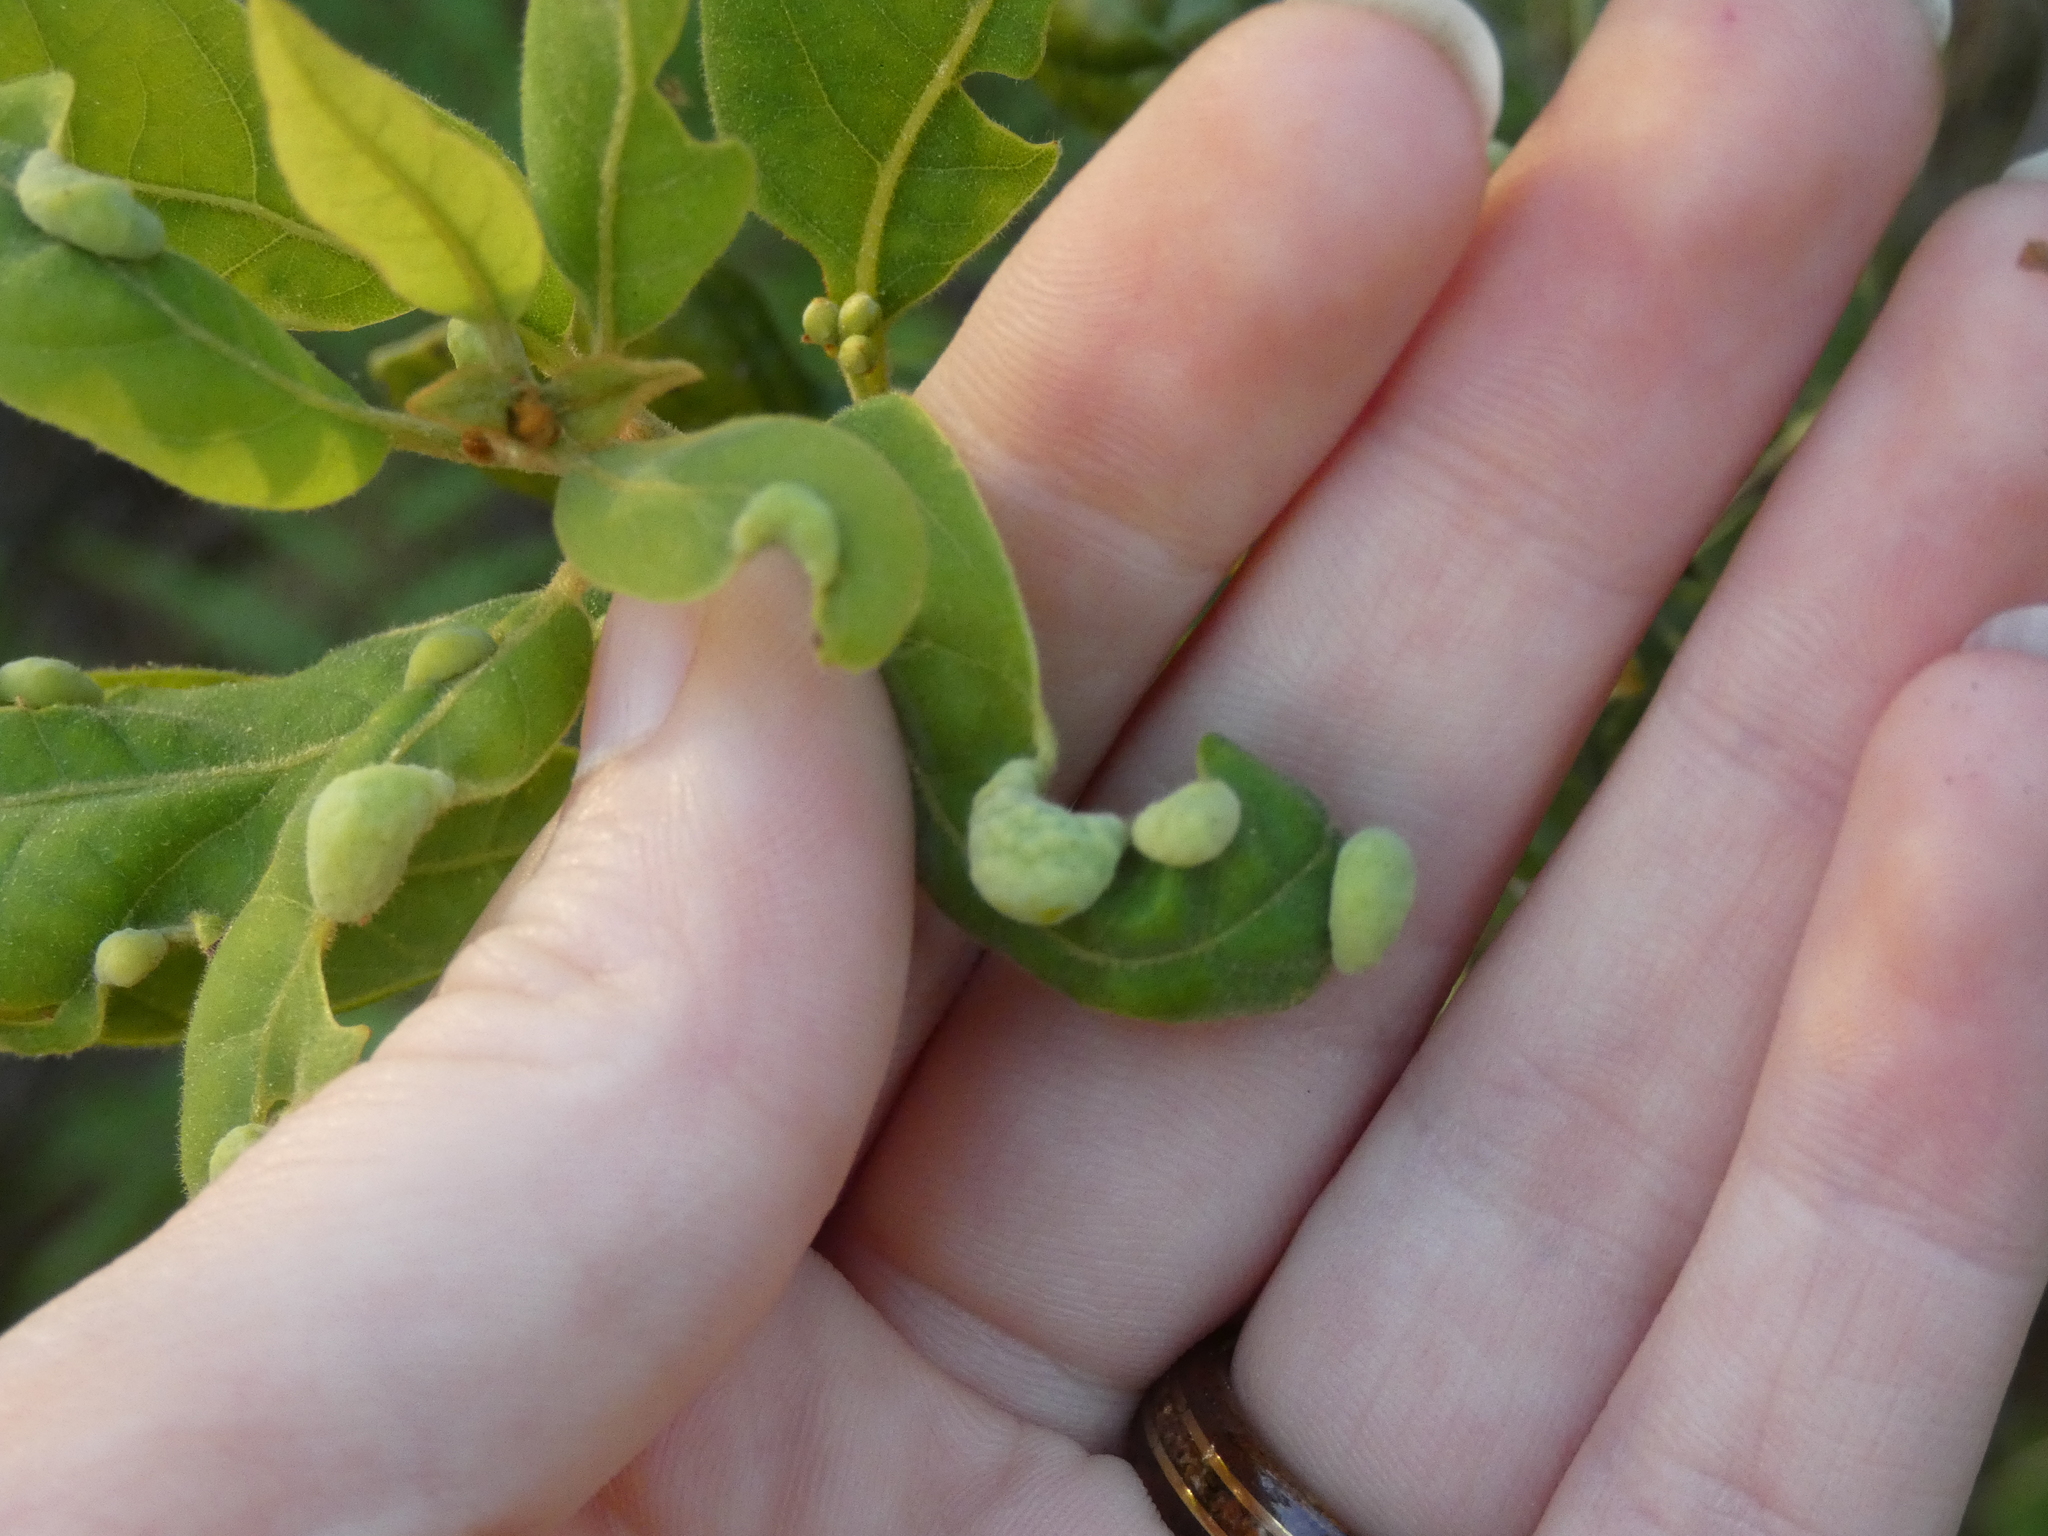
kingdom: Animalia
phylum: Arthropoda
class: Insecta
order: Hemiptera
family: Triozidae
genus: Trioza
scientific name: Trioza magnoliae
